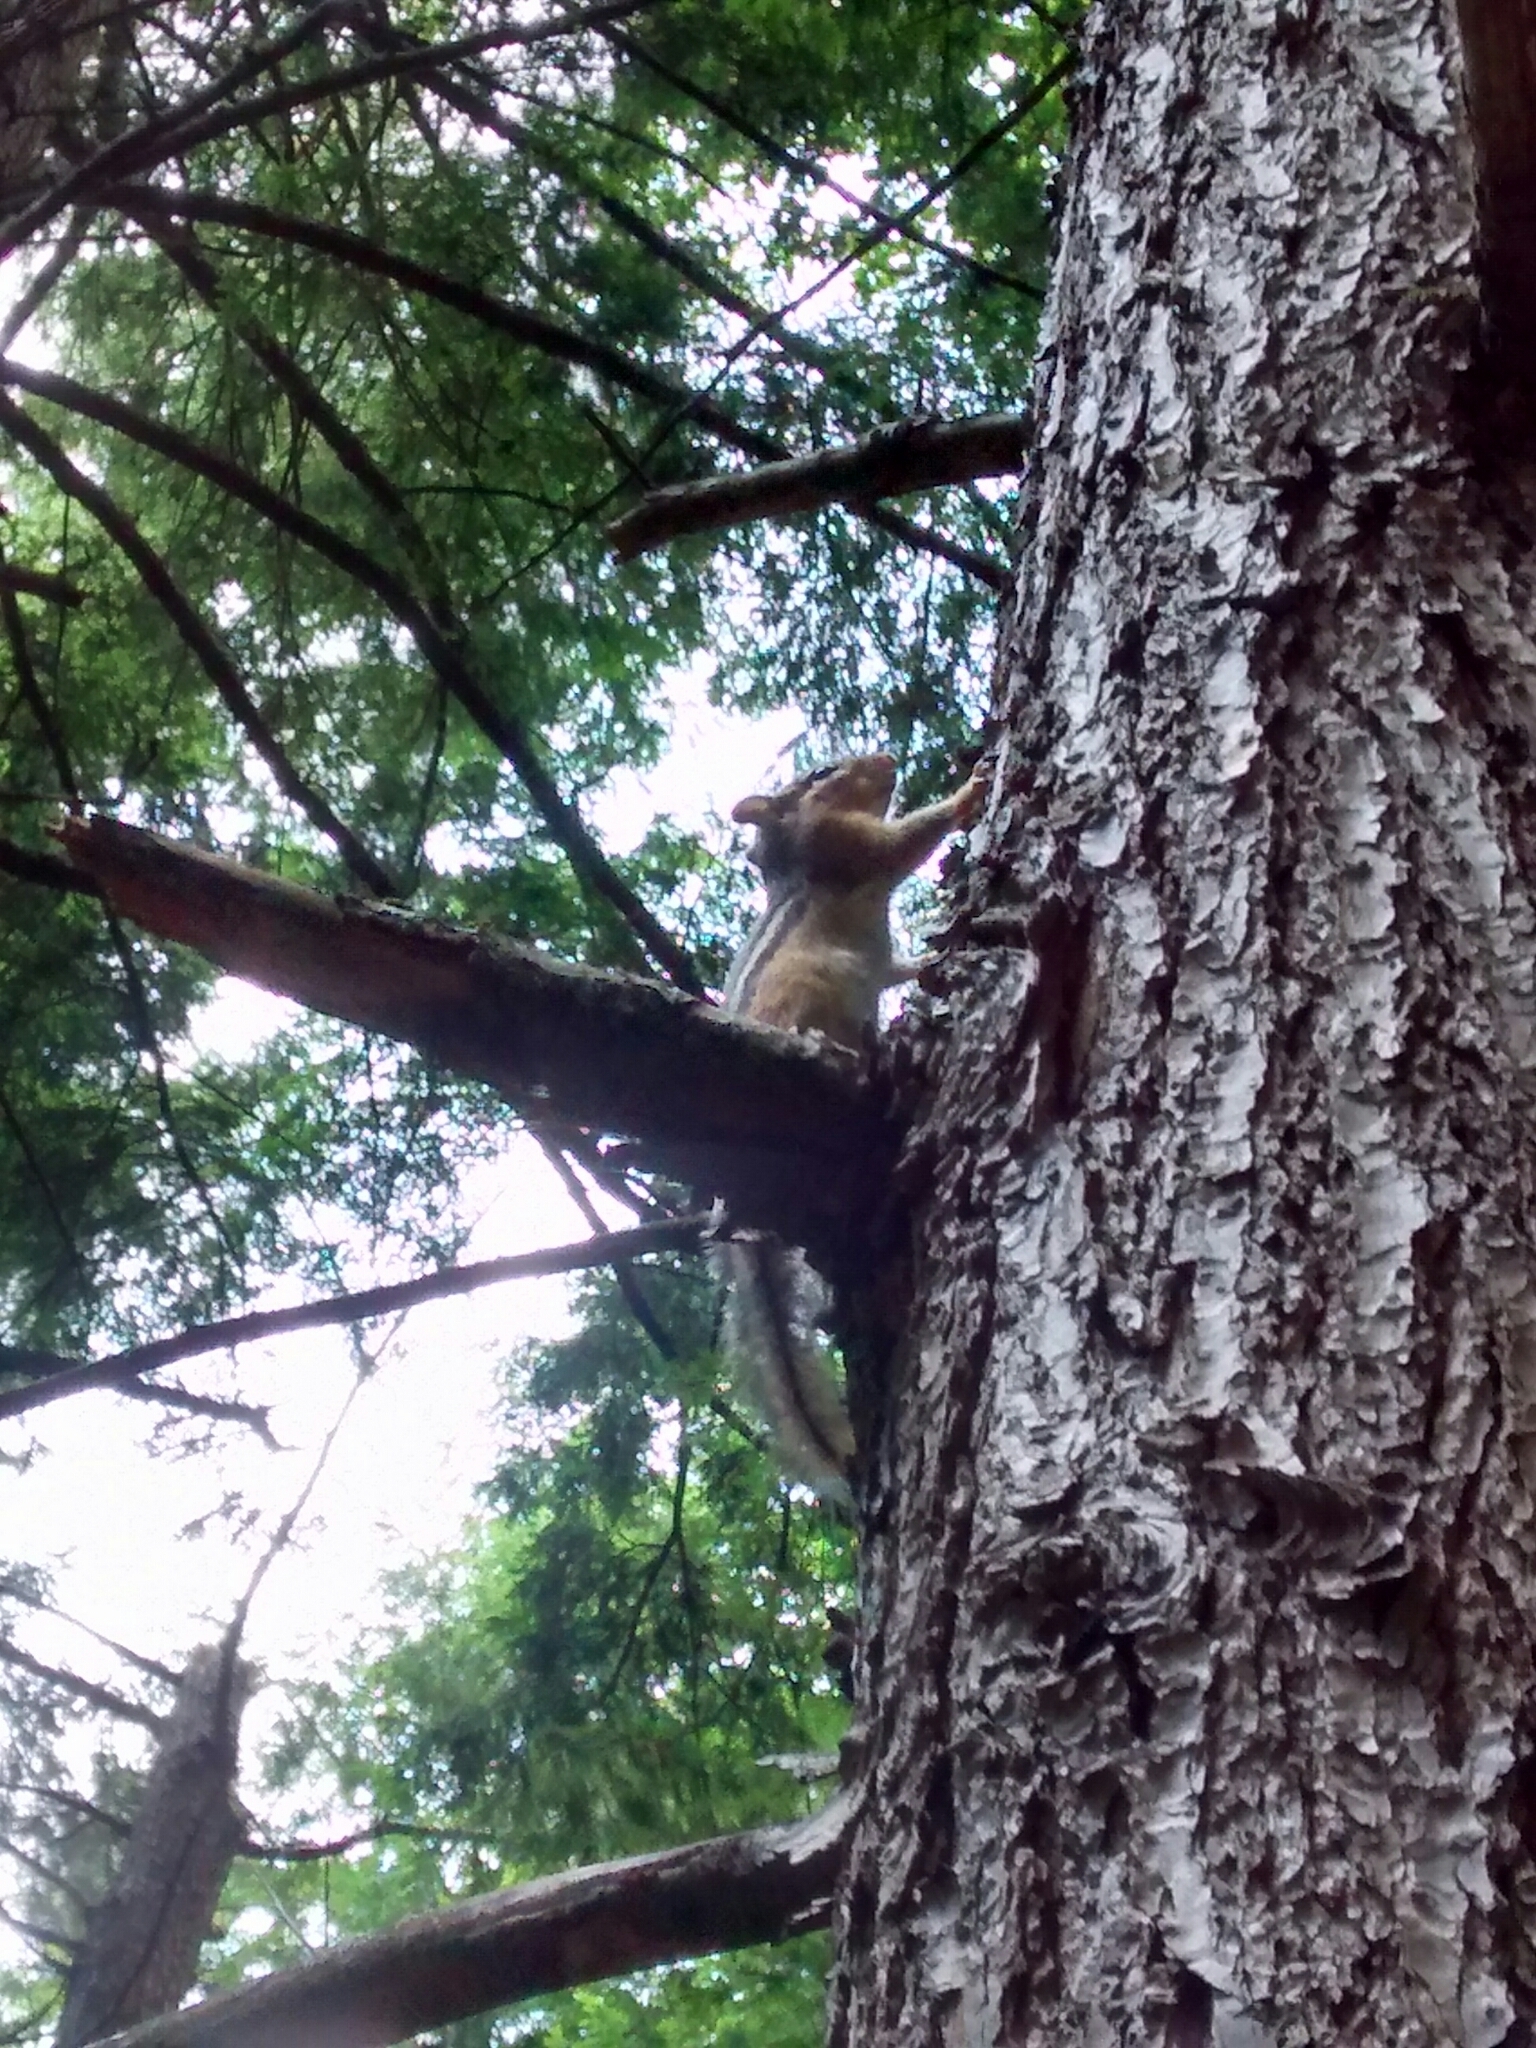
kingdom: Animalia
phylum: Chordata
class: Mammalia
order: Rodentia
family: Sciuridae
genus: Tamias
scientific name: Tamias striatus
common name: Eastern chipmunk
